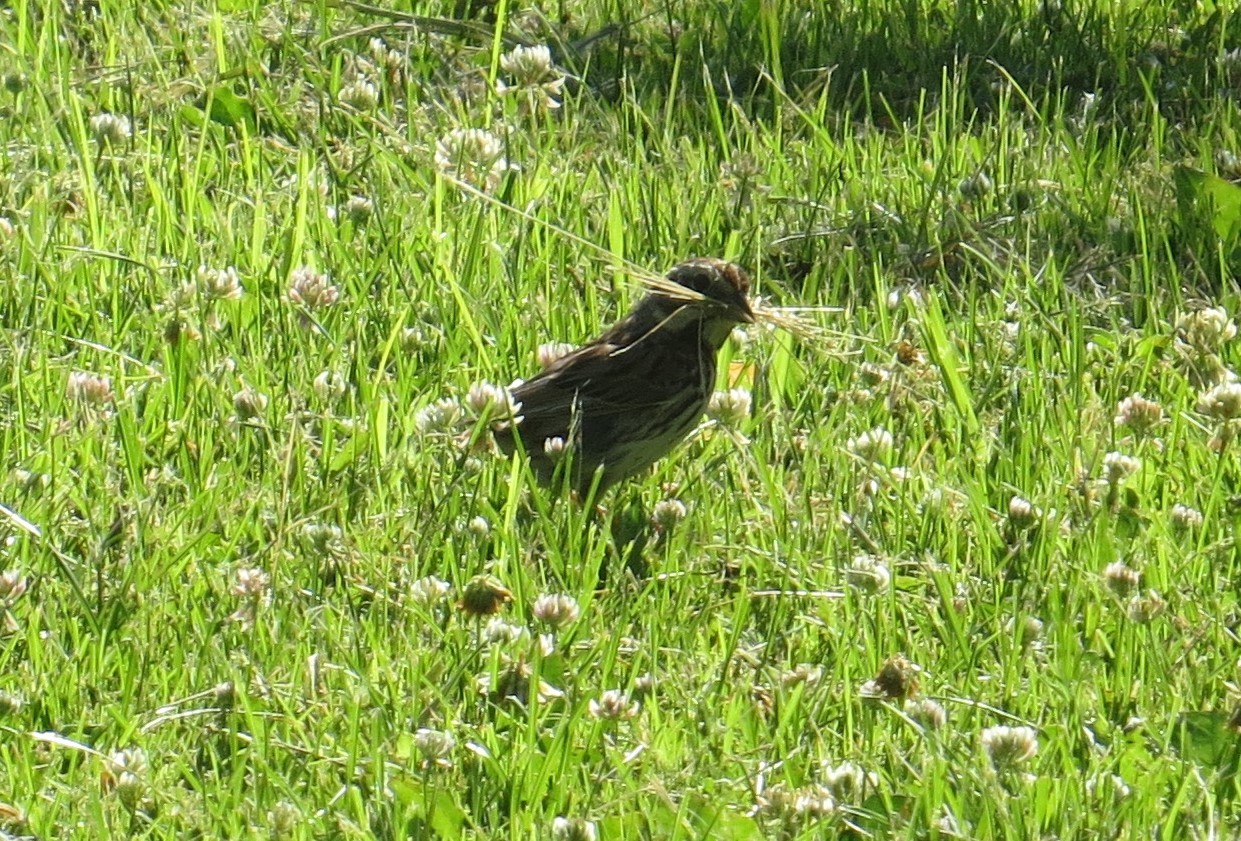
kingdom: Animalia
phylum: Chordata
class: Aves
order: Passeriformes
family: Passerellidae
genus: Melospiza
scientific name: Melospiza melodia
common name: Song sparrow
